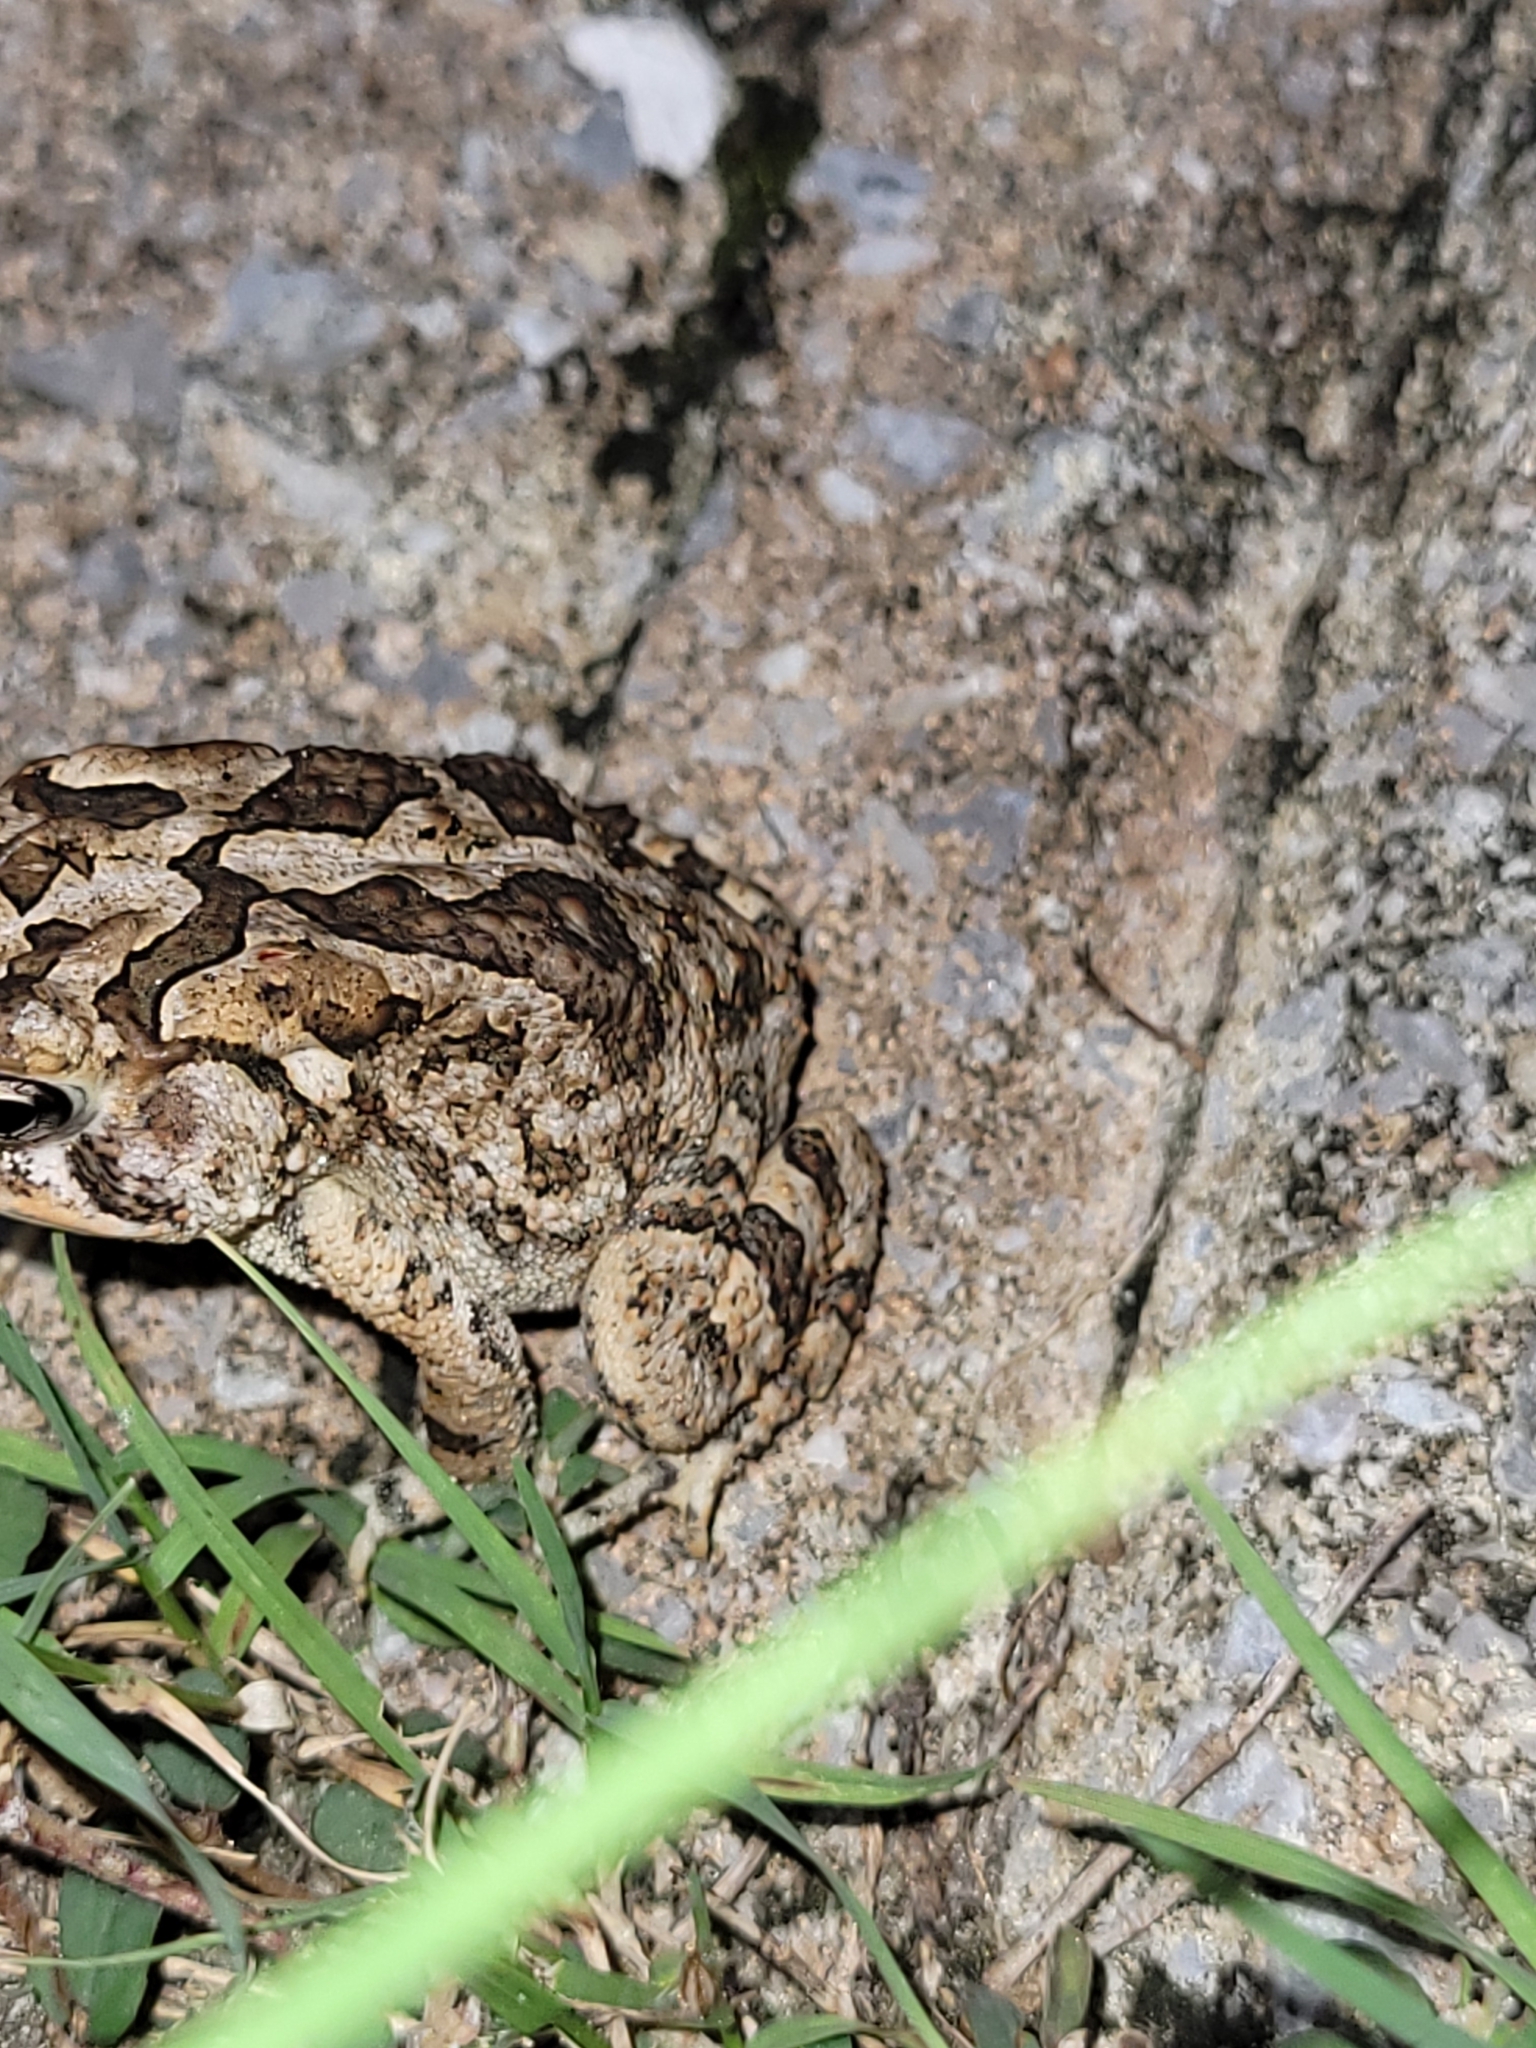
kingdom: Animalia
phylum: Chordata
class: Amphibia
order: Anura
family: Bufonidae
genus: Anaxyrus
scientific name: Anaxyrus terrestris
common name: Southern toad
